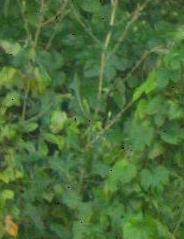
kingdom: Plantae
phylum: Tracheophyta
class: Magnoliopsida
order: Asterales
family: Asteraceae
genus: Lactuca
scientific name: Lactuca serriola
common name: Prickly lettuce
